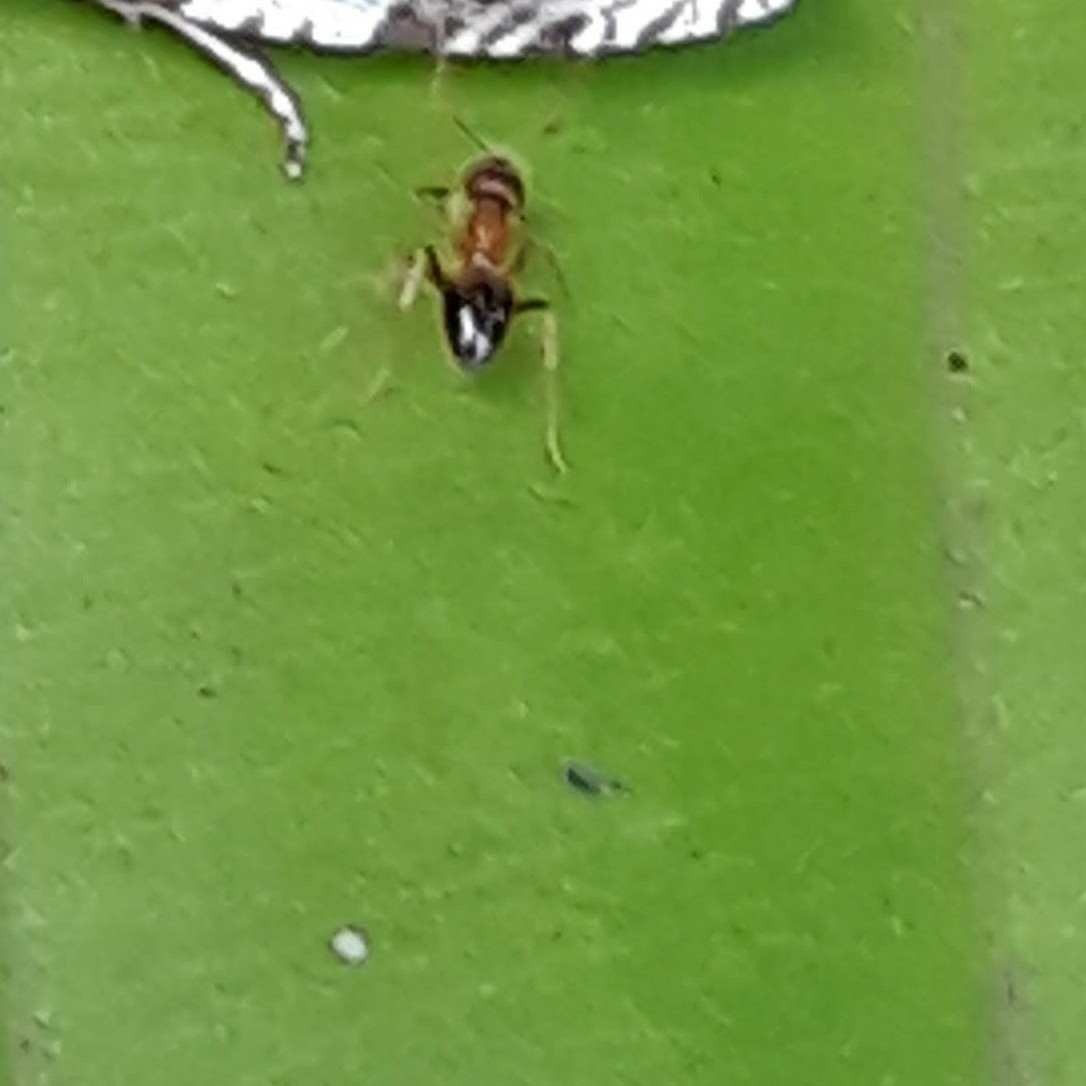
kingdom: Animalia
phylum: Arthropoda
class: Insecta
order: Hymenoptera
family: Formicidae
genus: Paratrechina
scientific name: Paratrechina flavipes
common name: Eastern asian formicine ant
